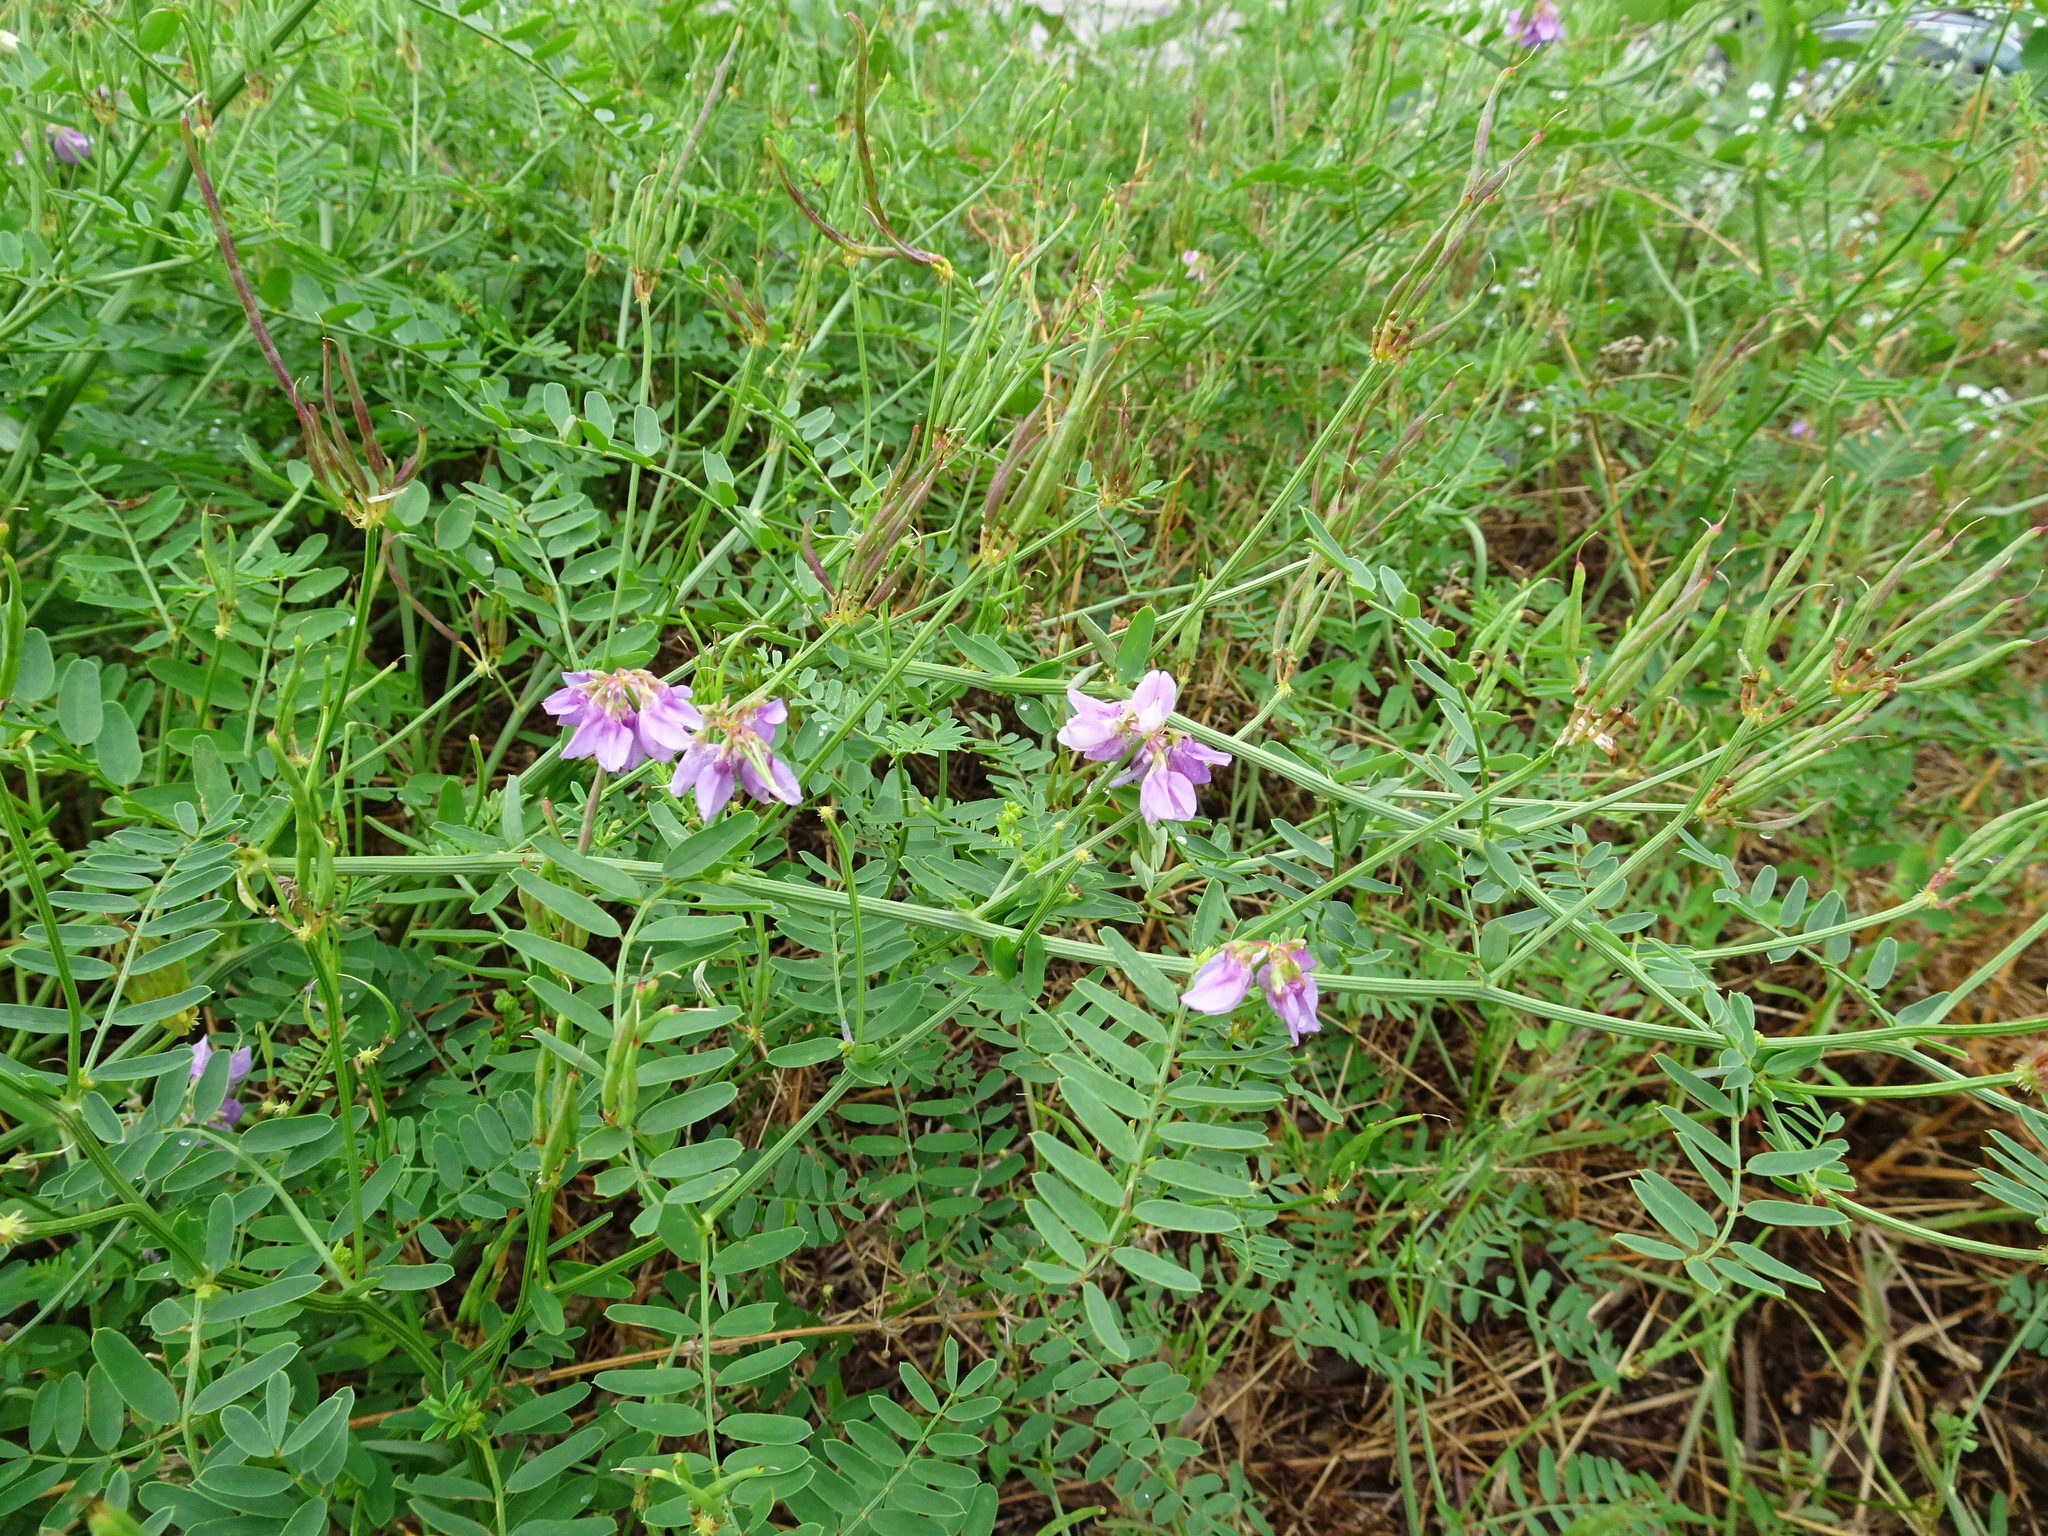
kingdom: Plantae
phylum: Tracheophyta
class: Magnoliopsida
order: Fabales
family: Fabaceae
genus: Coronilla
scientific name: Coronilla varia
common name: Crownvetch
